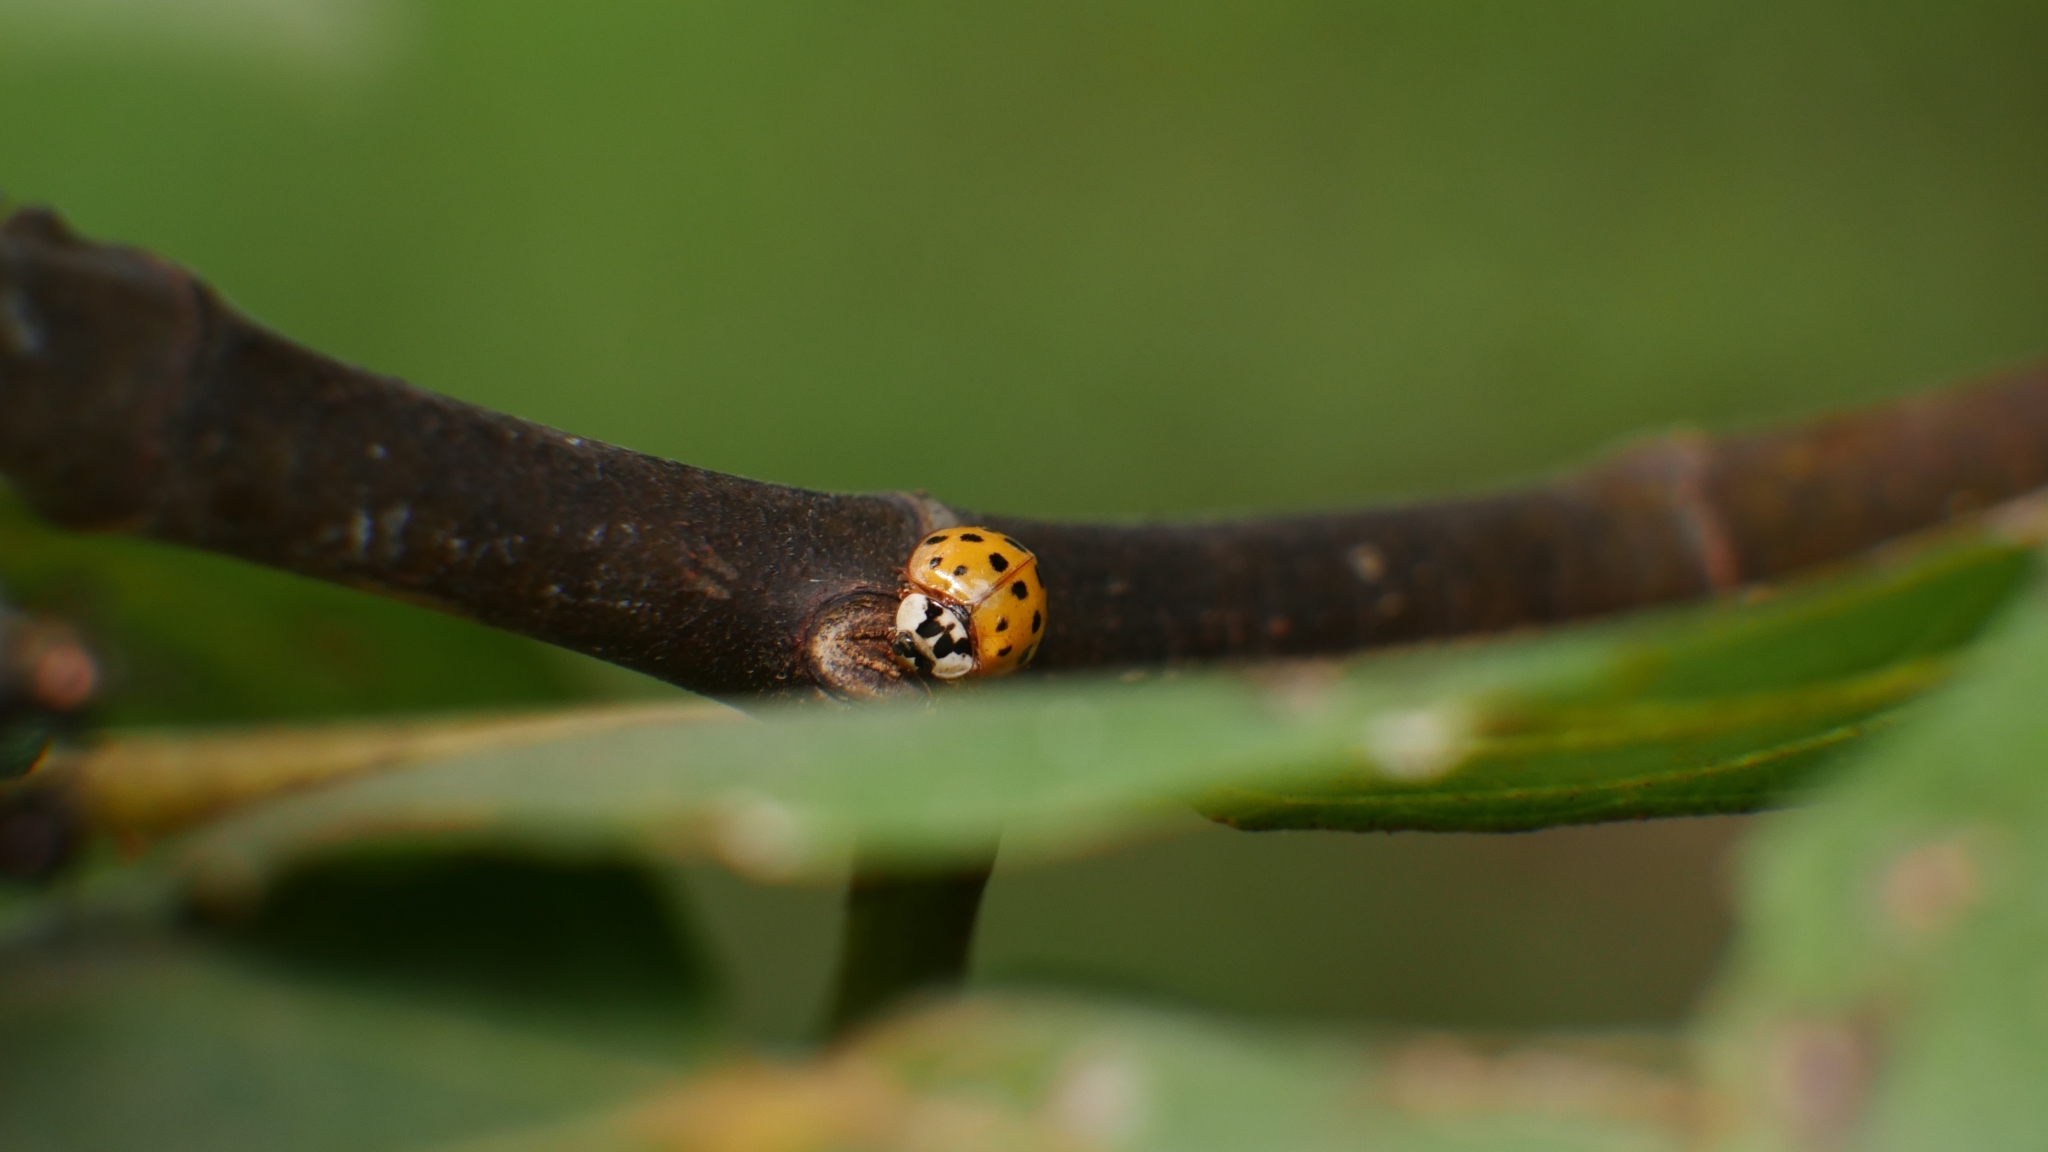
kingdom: Animalia
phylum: Arthropoda
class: Insecta
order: Coleoptera
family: Coccinellidae
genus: Harmonia
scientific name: Harmonia axyridis
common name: Harlequin ladybird
